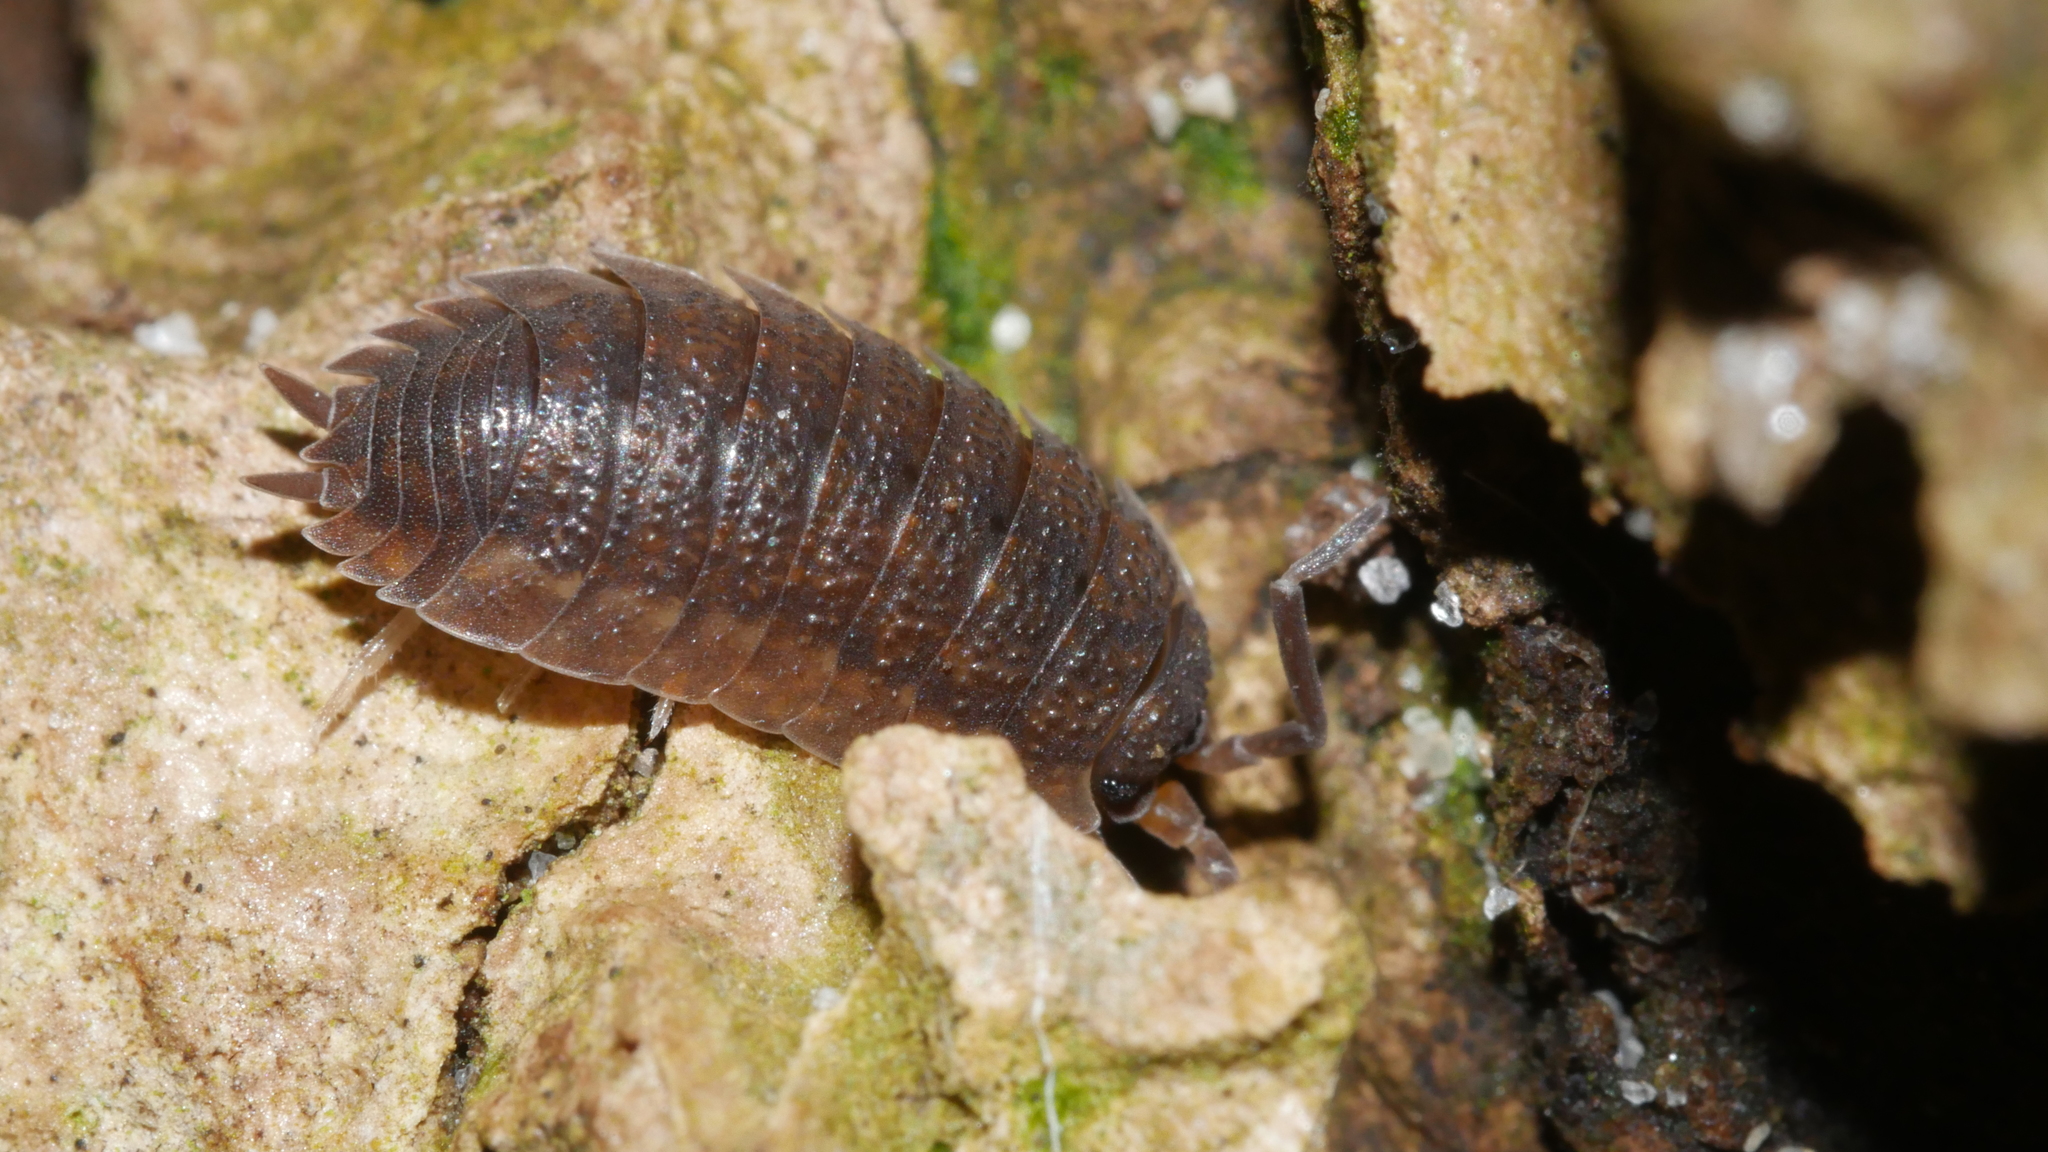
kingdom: Animalia
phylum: Arthropoda
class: Malacostraca
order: Isopoda
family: Porcellionidae
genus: Porcellio
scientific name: Porcellio scaber
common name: Common rough woodlouse
